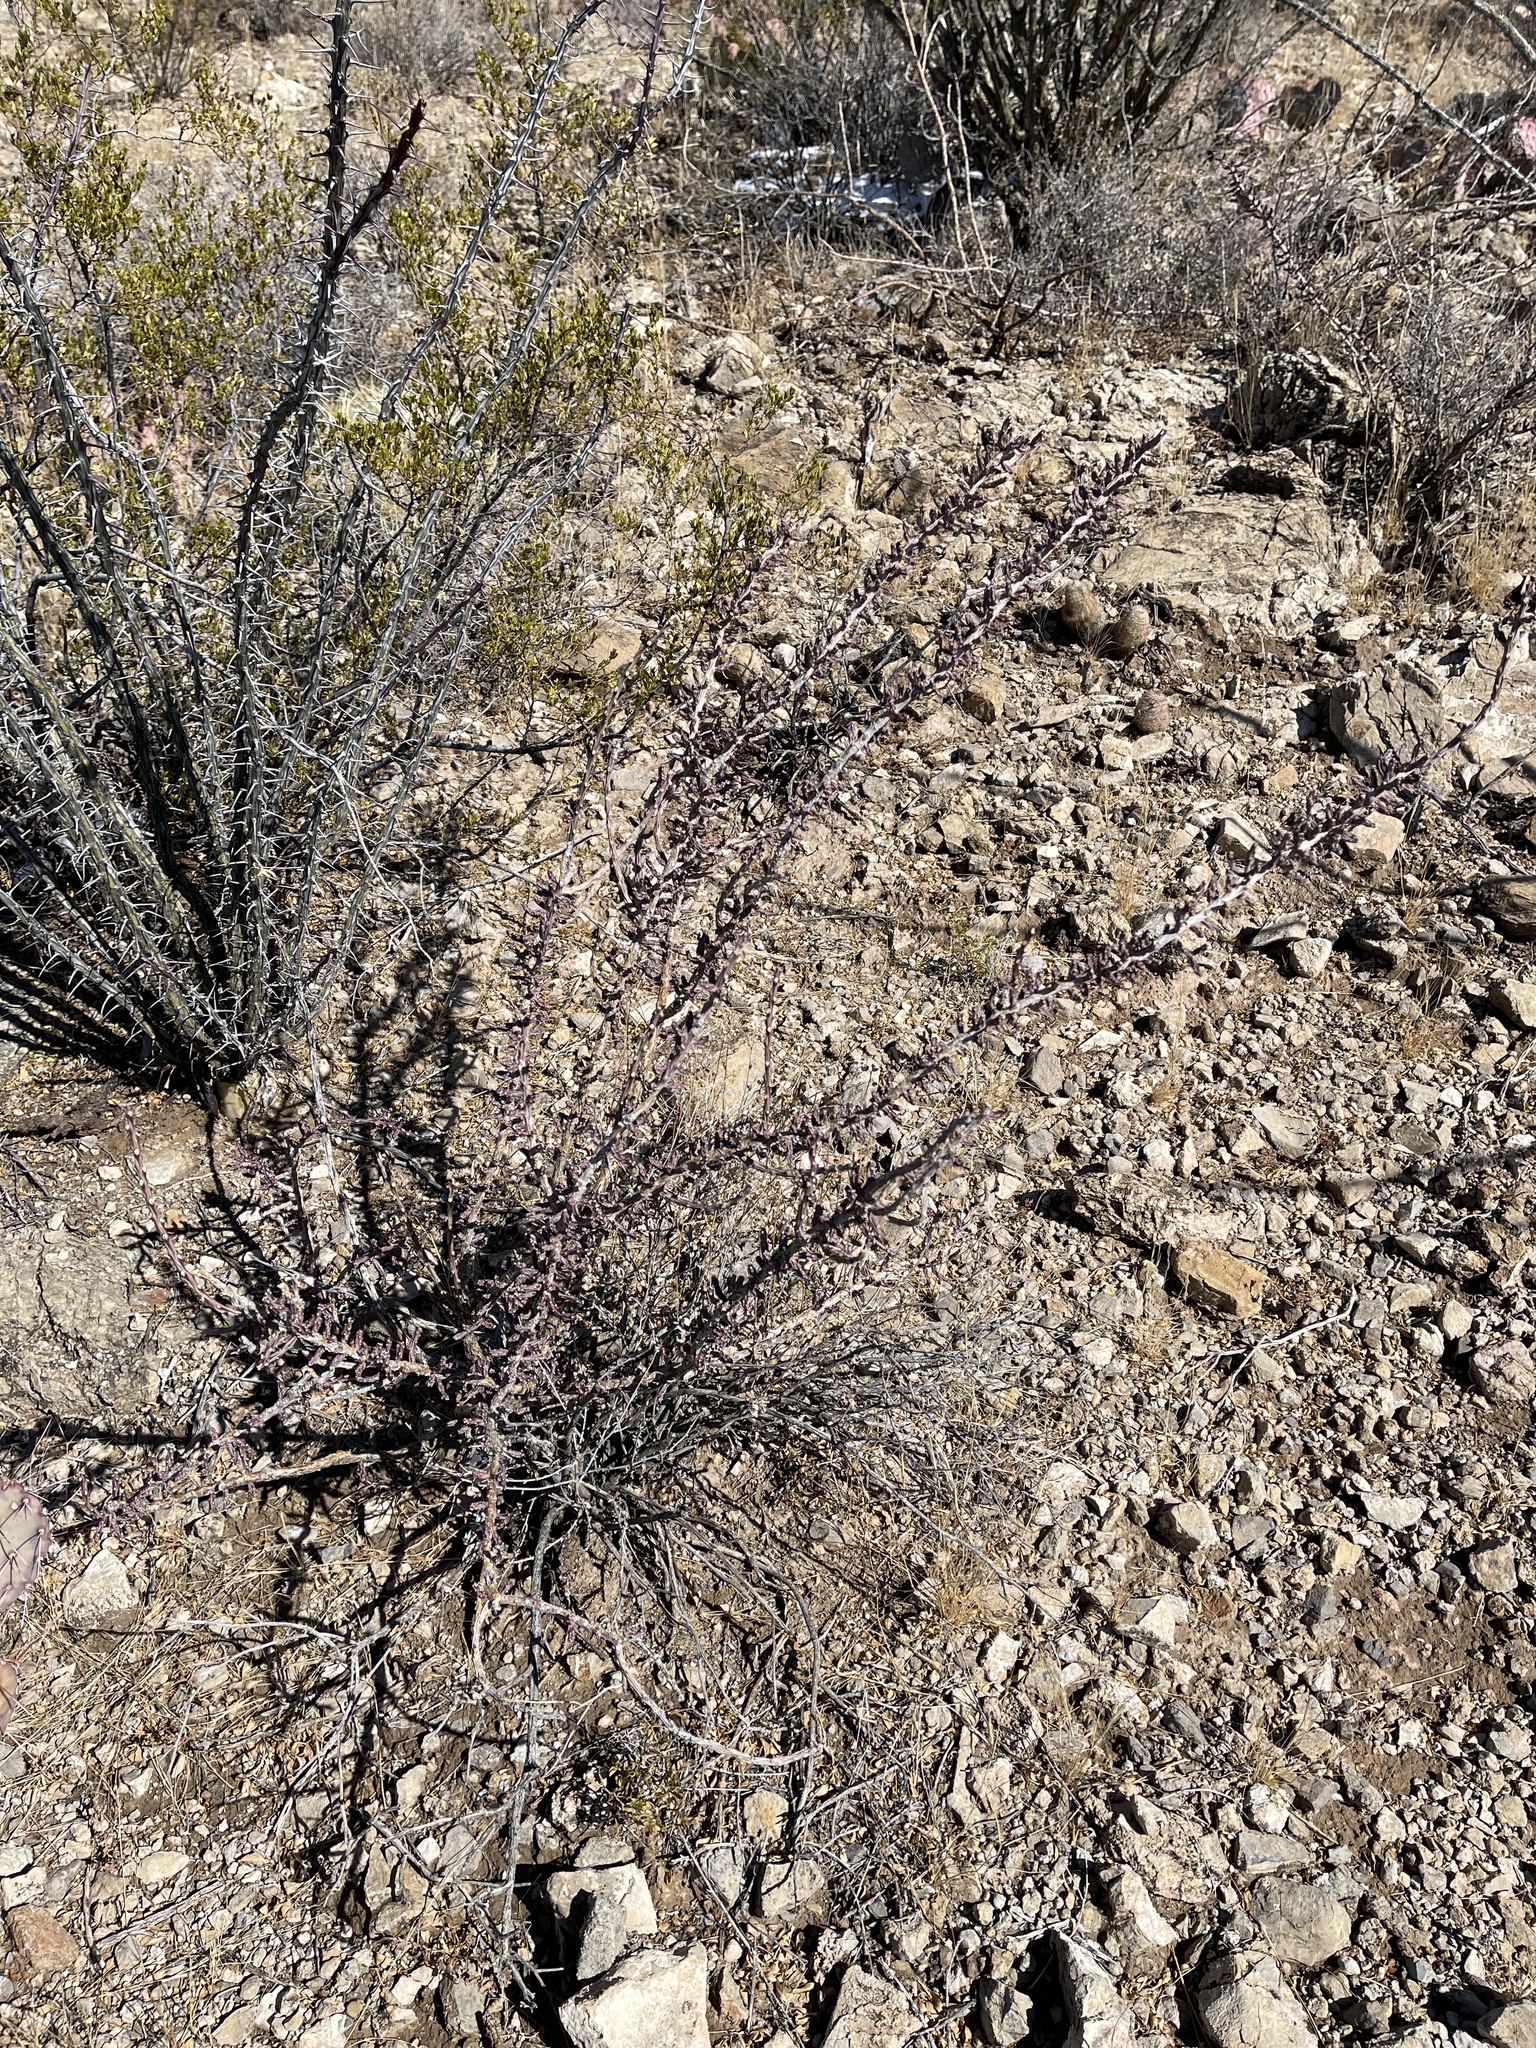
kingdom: Plantae
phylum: Tracheophyta
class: Magnoliopsida
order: Caryophyllales
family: Cactaceae
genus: Cylindropuntia
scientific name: Cylindropuntia leptocaulis
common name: Christmas cactus
